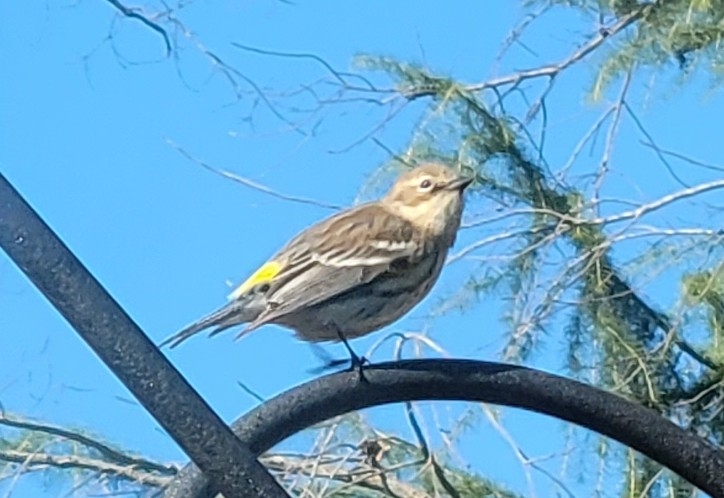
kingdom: Animalia
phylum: Chordata
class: Aves
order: Passeriformes
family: Parulidae
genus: Setophaga
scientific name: Setophaga coronata
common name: Myrtle warbler
